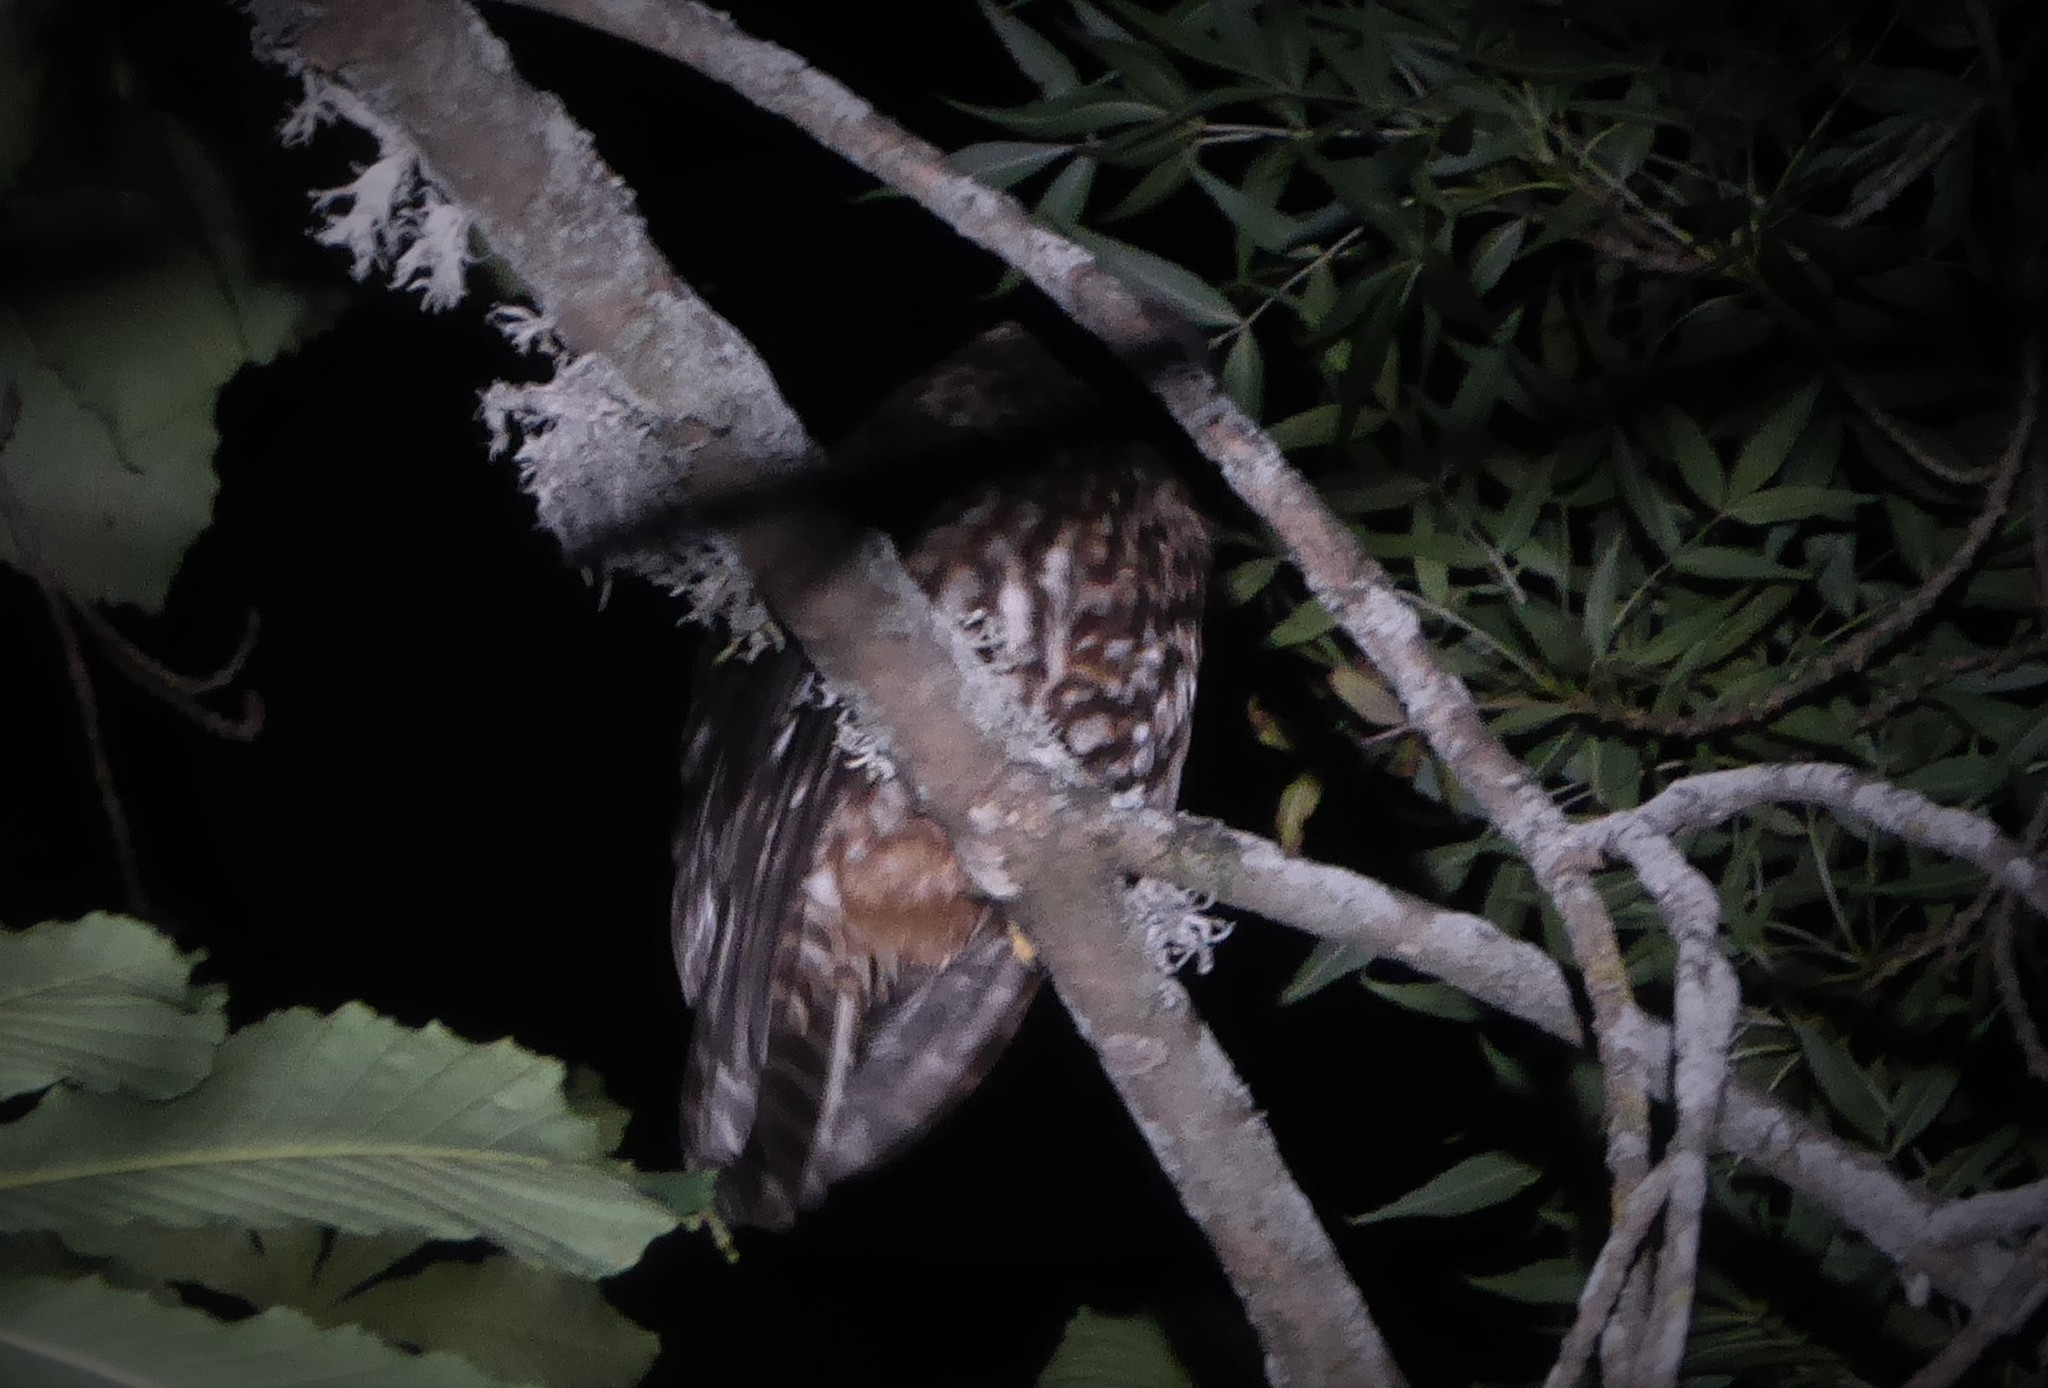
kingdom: Animalia
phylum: Chordata
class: Aves
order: Strigiformes
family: Strigidae
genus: Ninox
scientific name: Ninox novaeseelandiae
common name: Morepork
